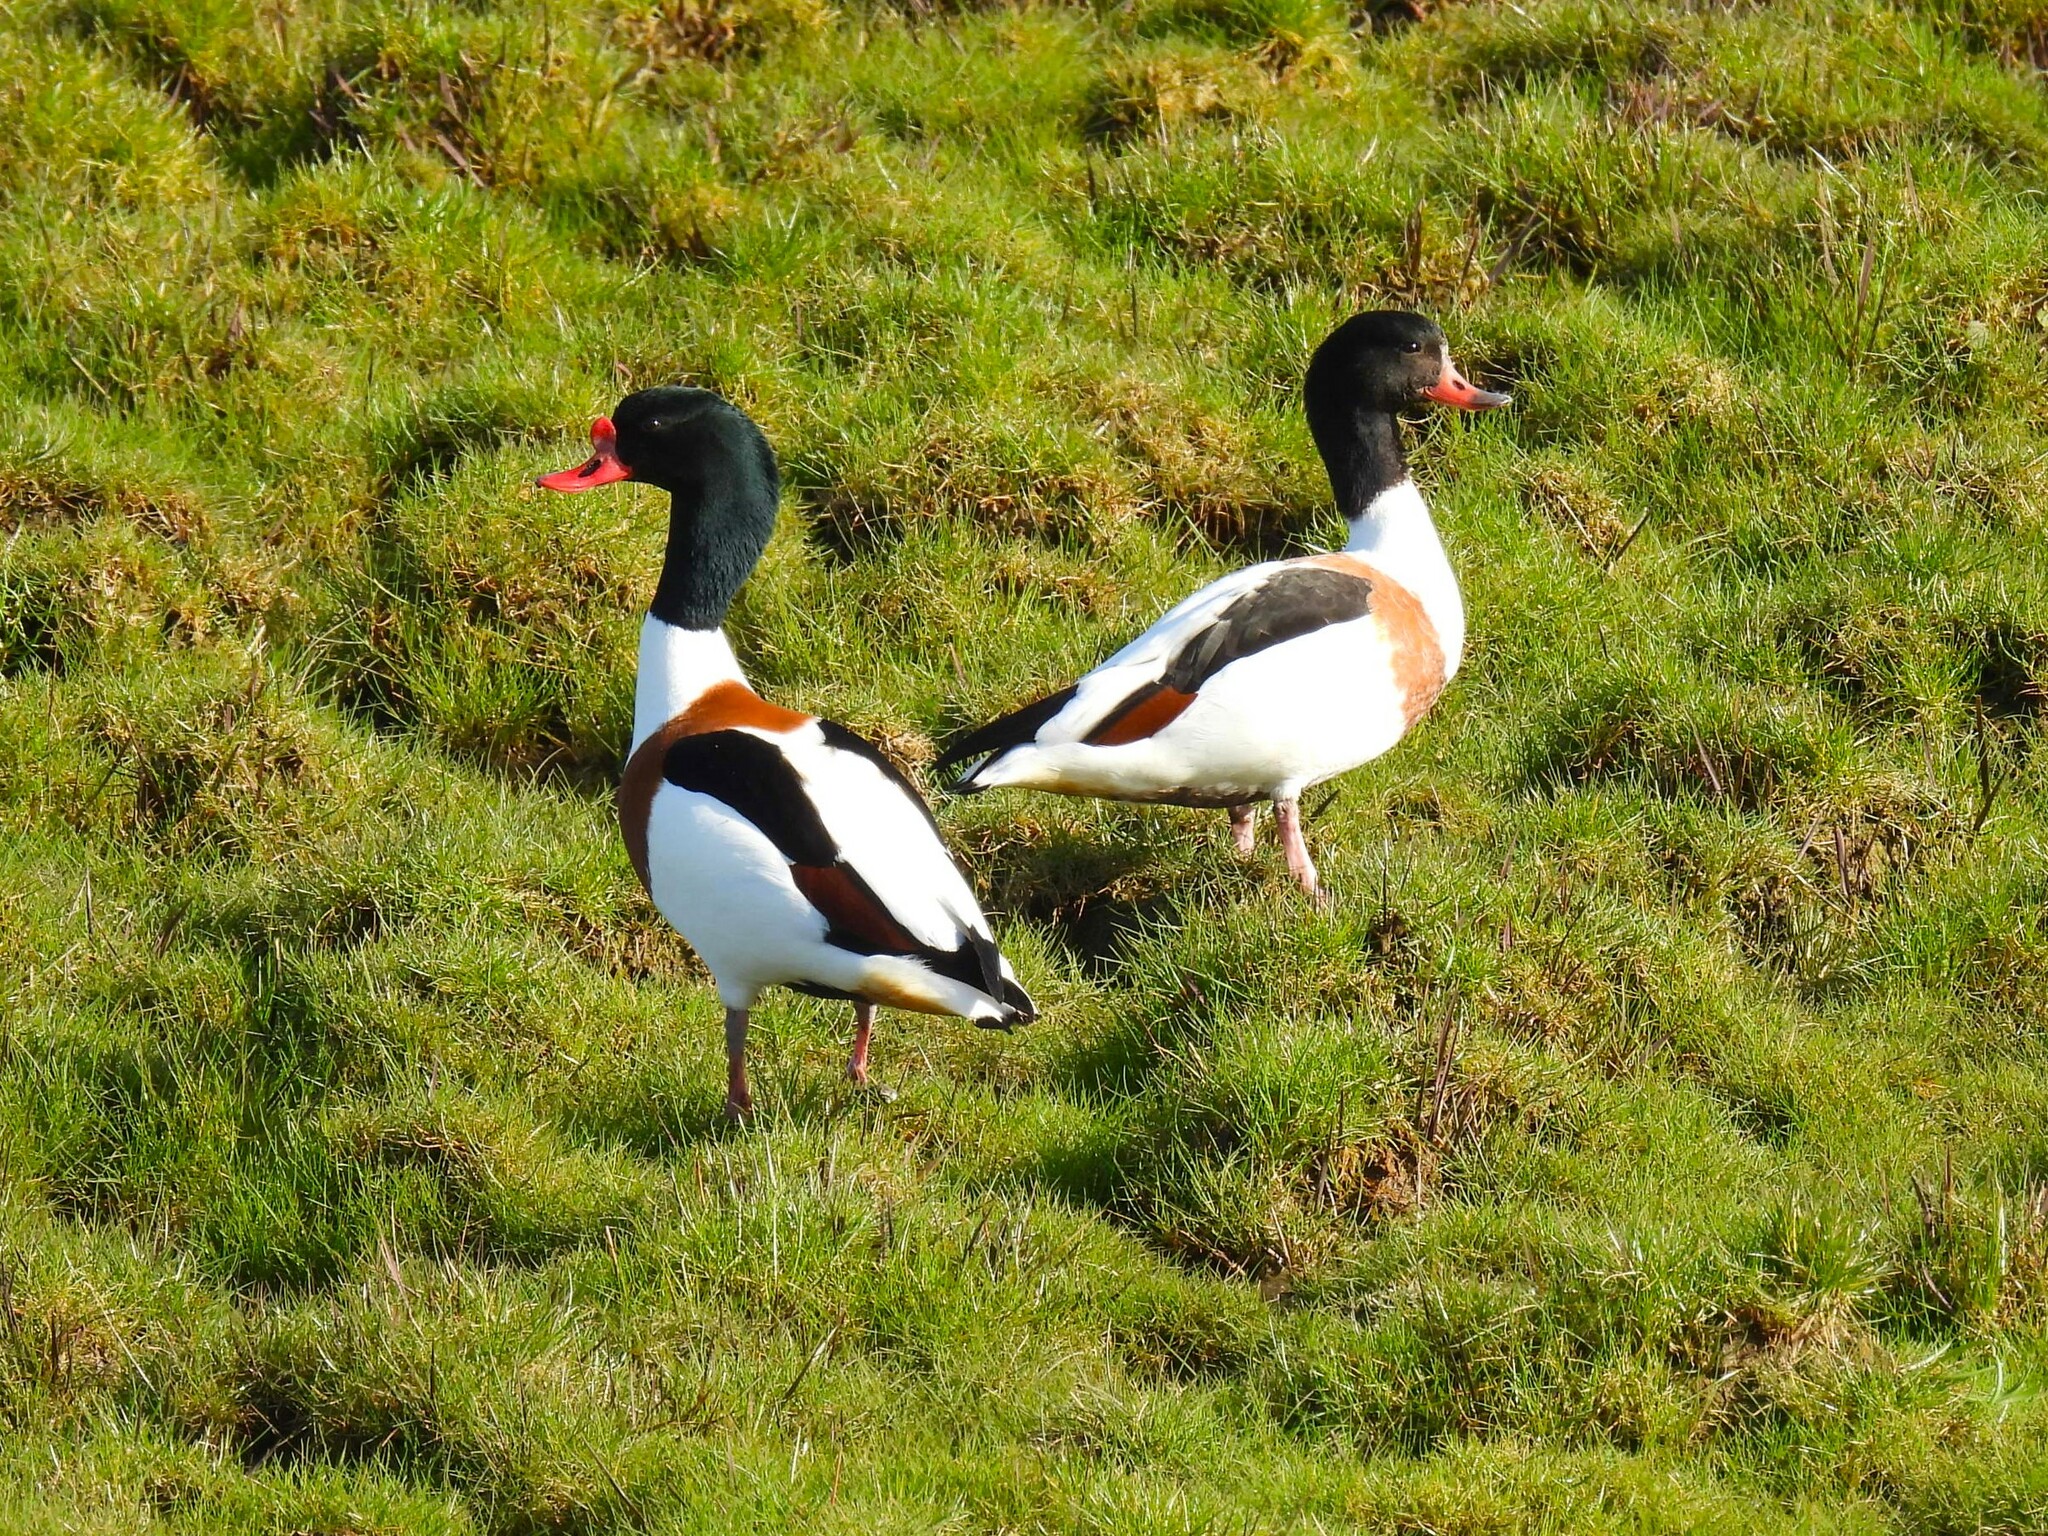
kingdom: Animalia
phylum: Chordata
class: Aves
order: Anseriformes
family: Anatidae
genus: Tadorna
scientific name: Tadorna tadorna
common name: Common shelduck
